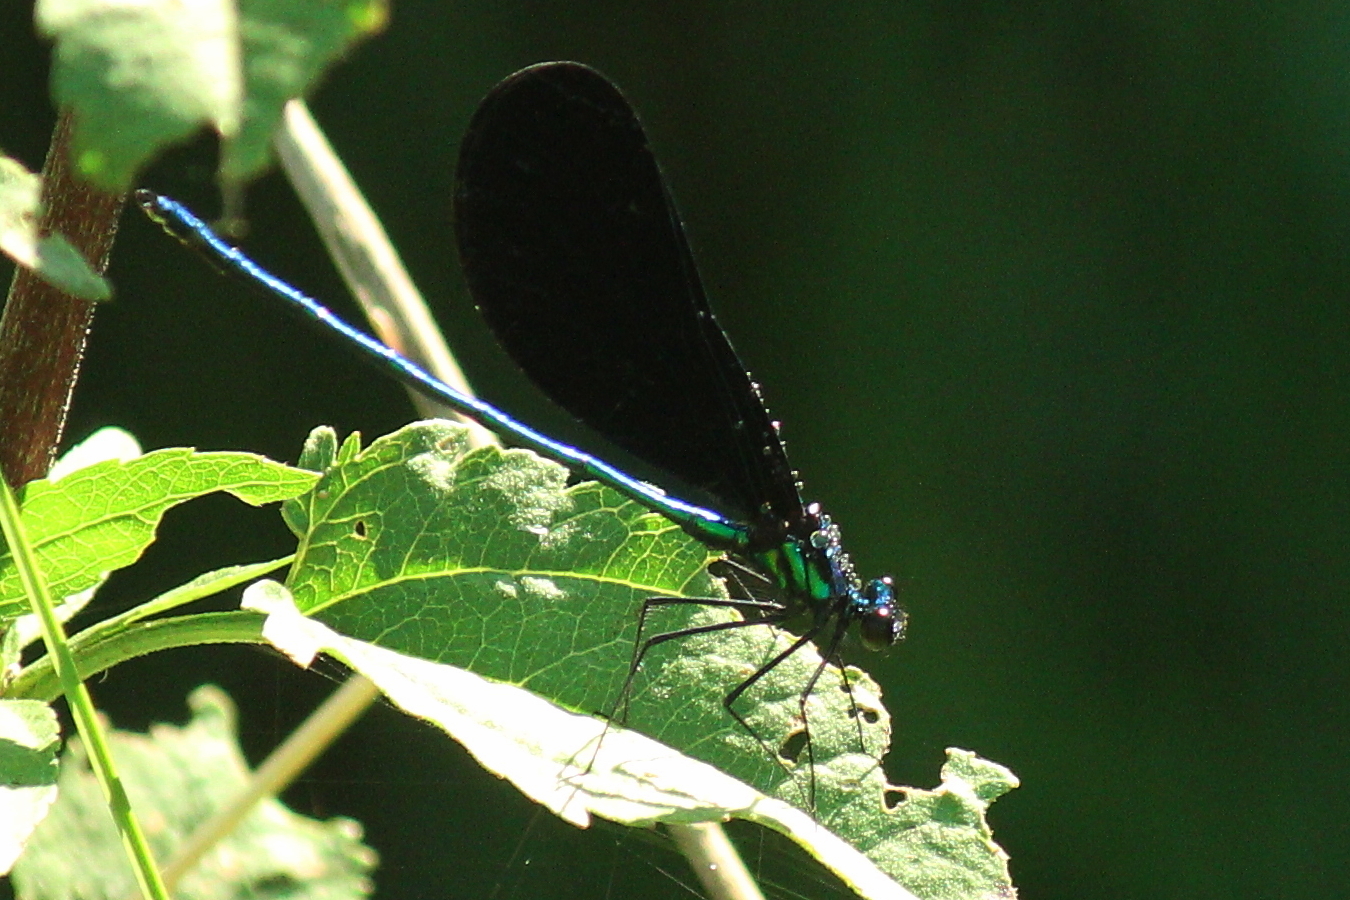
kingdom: Animalia
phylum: Arthropoda
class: Insecta
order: Odonata
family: Calopterygidae
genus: Calopteryx
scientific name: Calopteryx maculata
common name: Ebony jewelwing
